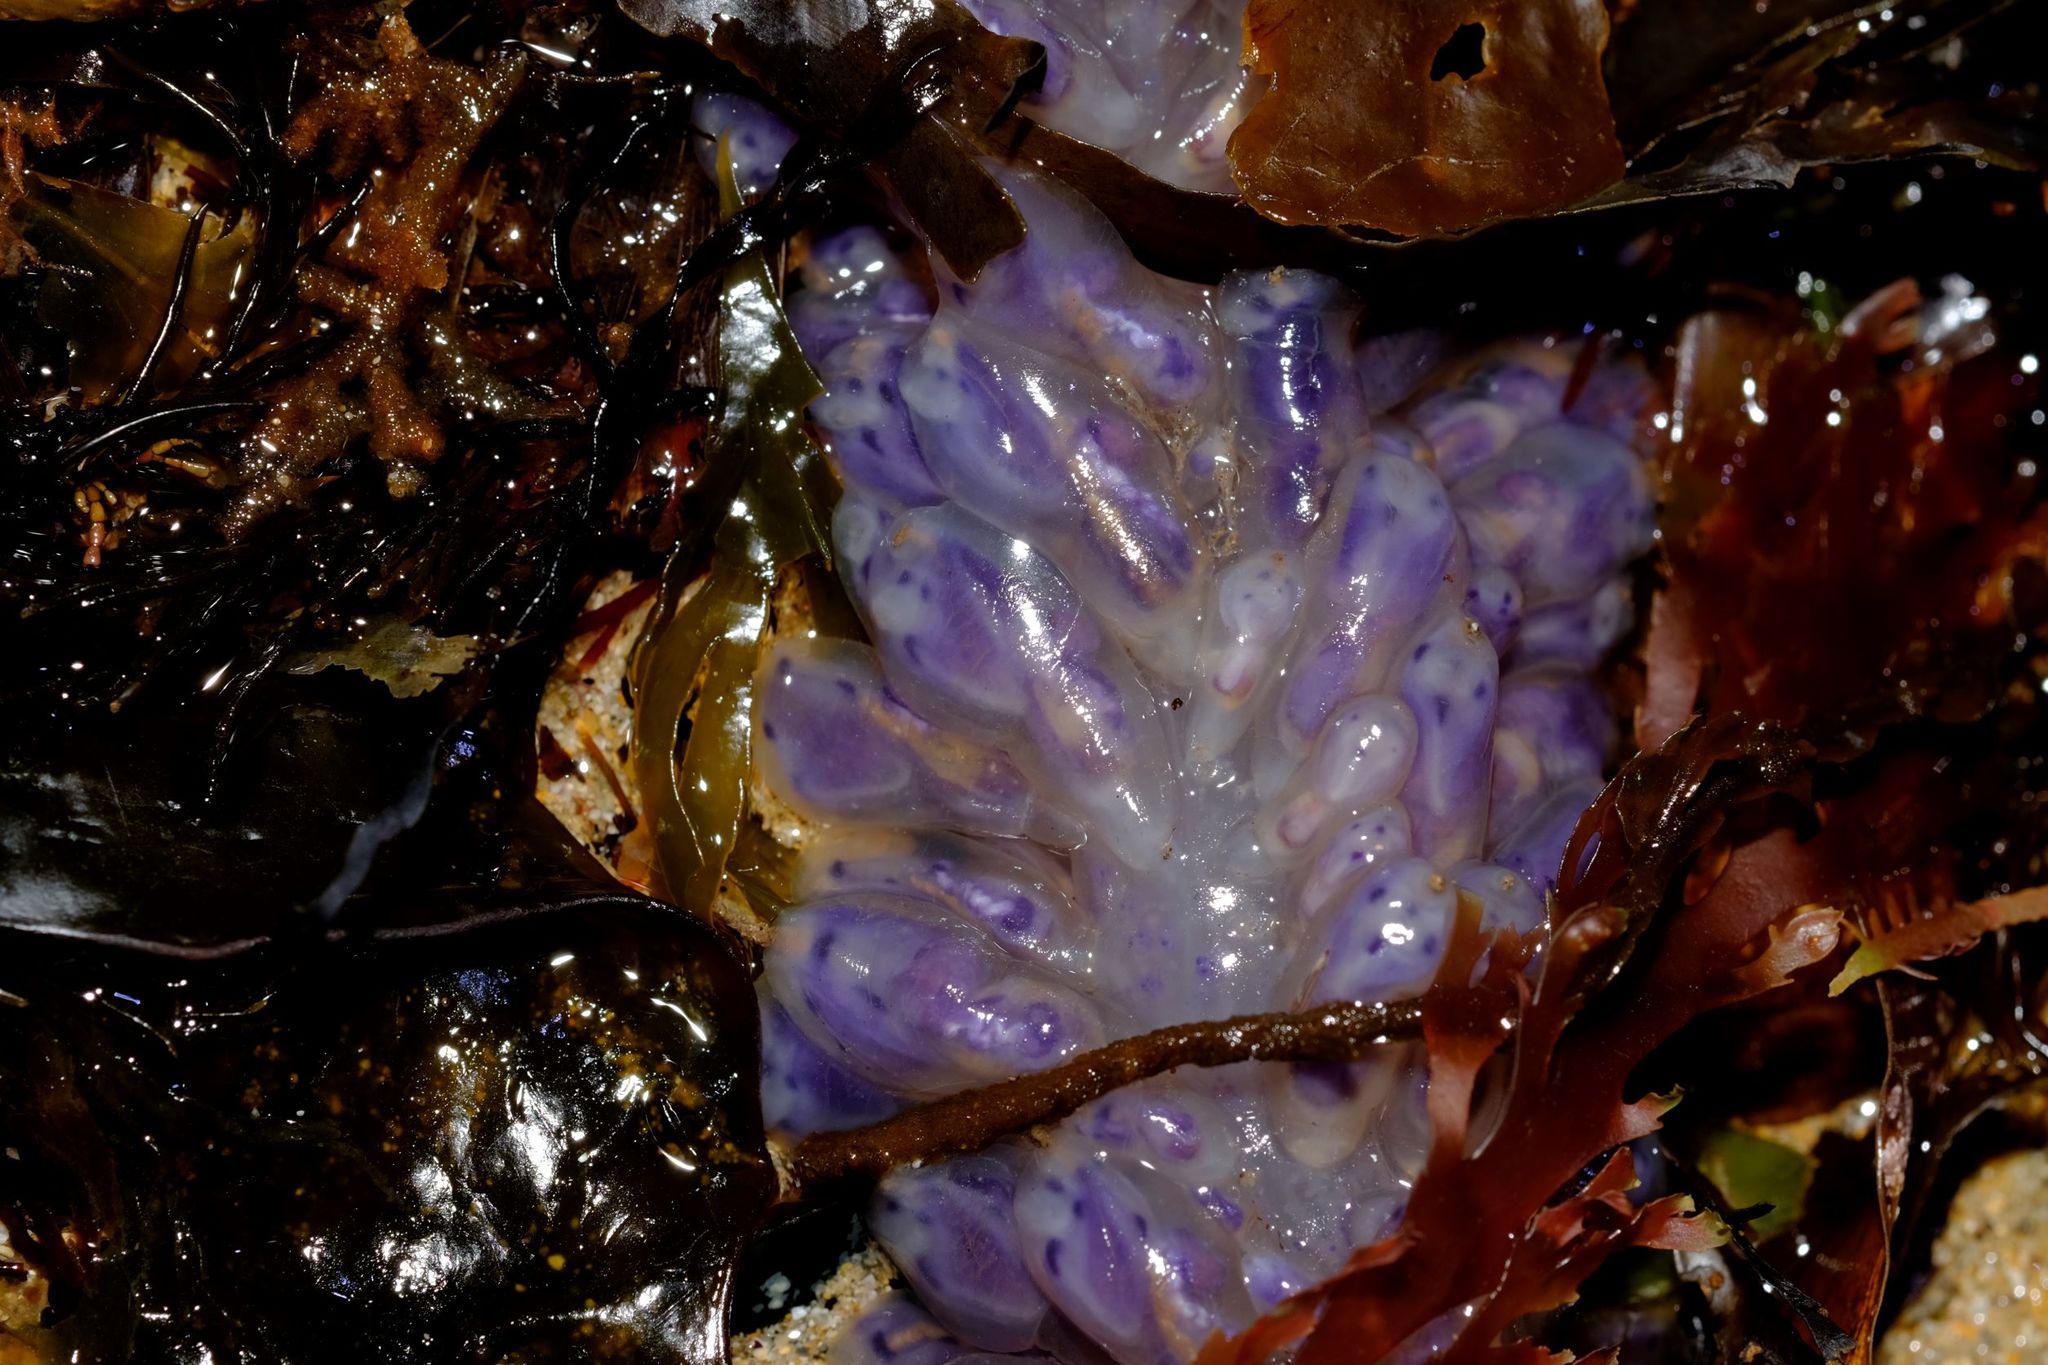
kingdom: Animalia
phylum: Chordata
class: Ascidiacea
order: Aplousobranchia
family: Clavelinidae
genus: Clavelina
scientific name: Clavelina moluccensis
